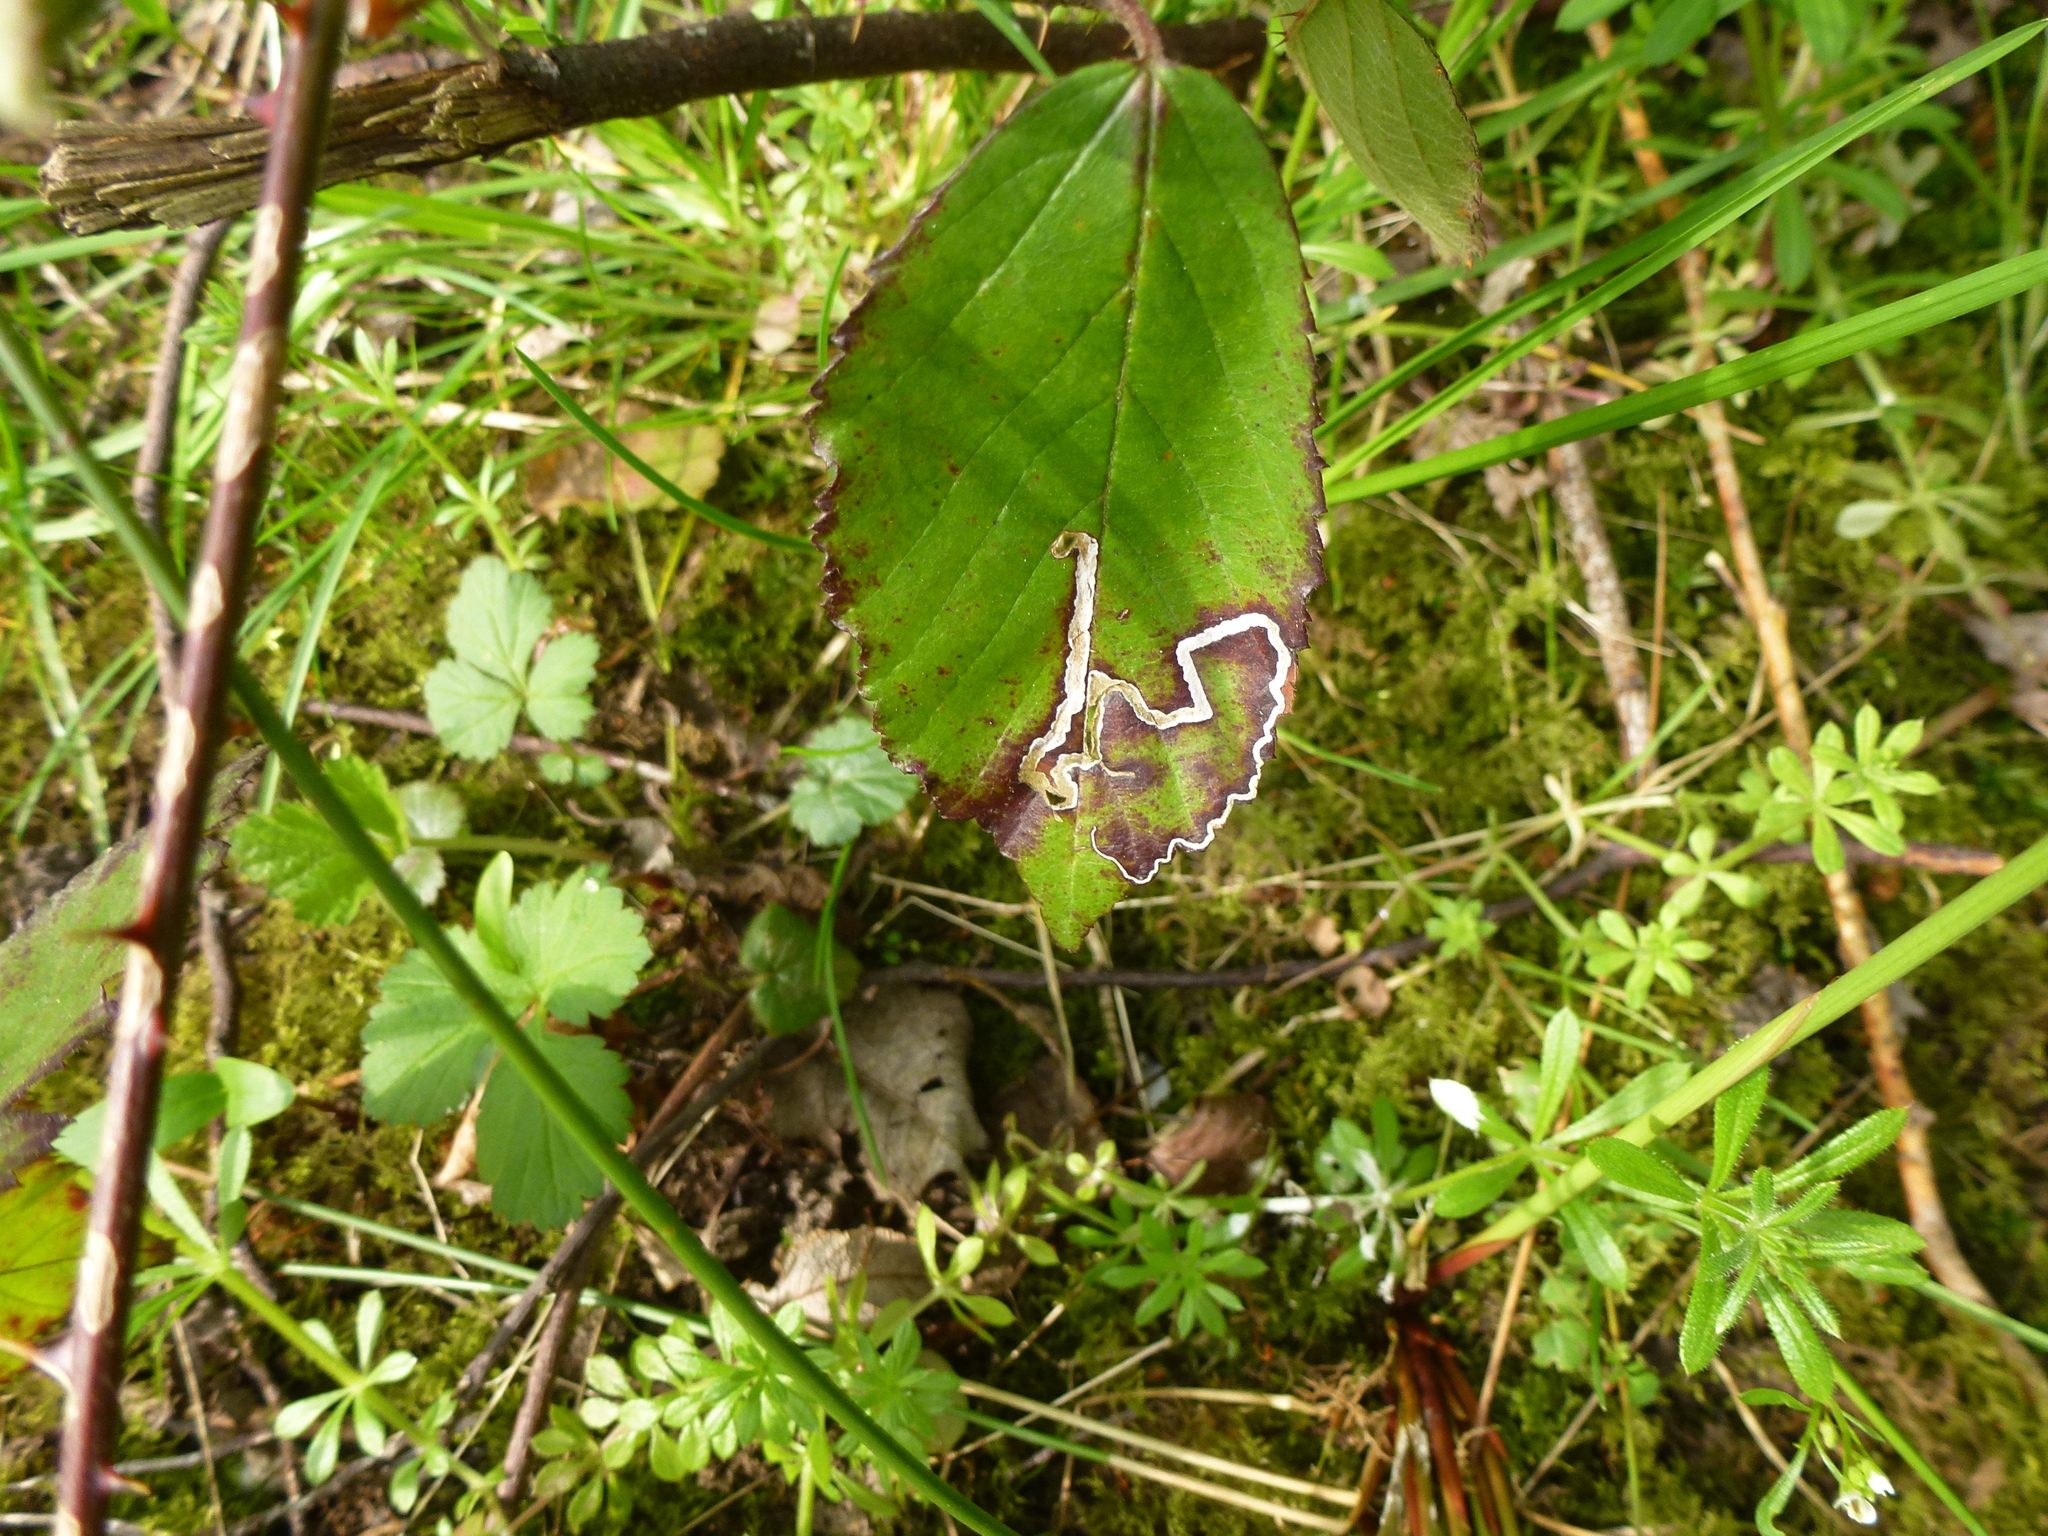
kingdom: Animalia
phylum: Arthropoda
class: Insecta
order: Lepidoptera
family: Nepticulidae
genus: Stigmella
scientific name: Stigmella aurella
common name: Golden pigmy
